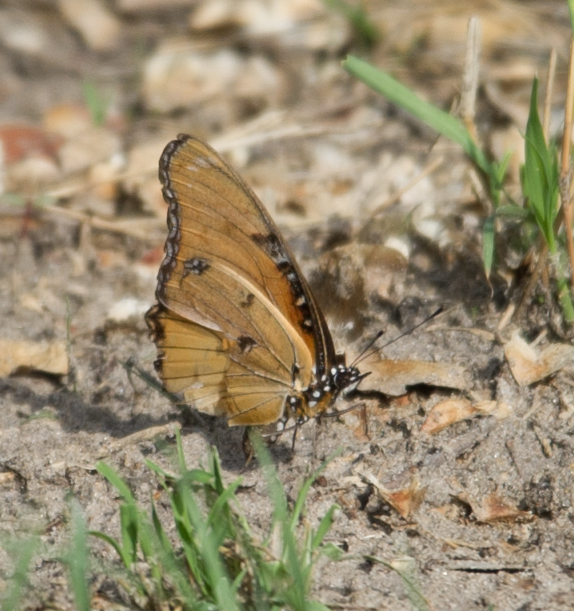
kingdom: Animalia
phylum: Arthropoda
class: Insecta
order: Lepidoptera
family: Nymphalidae
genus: Hypolimnas
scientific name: Hypolimnas misippus
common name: False plain tiger
